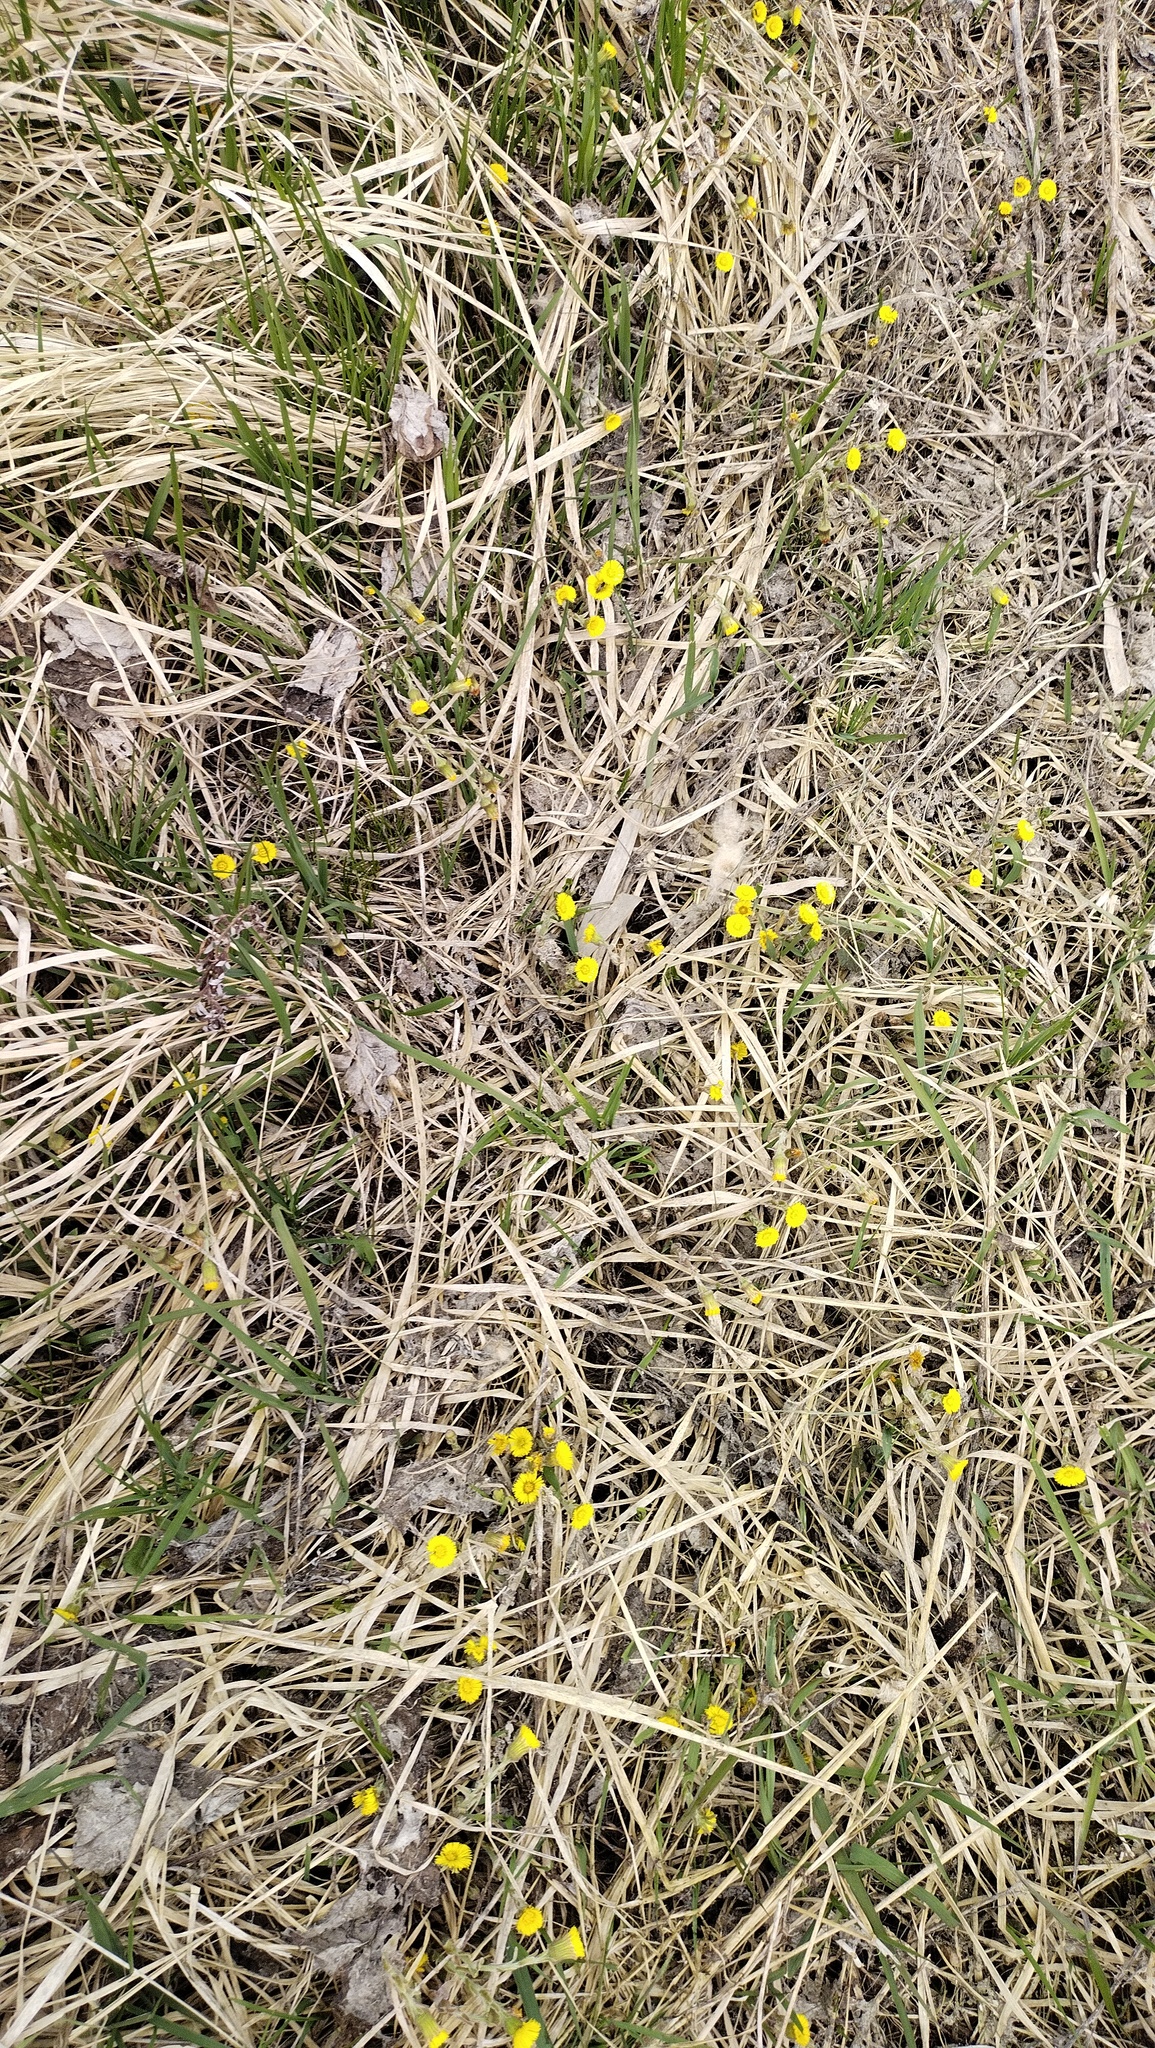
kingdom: Plantae
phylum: Tracheophyta
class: Magnoliopsida
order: Asterales
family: Asteraceae
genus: Tussilago
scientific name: Tussilago farfara
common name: Coltsfoot
